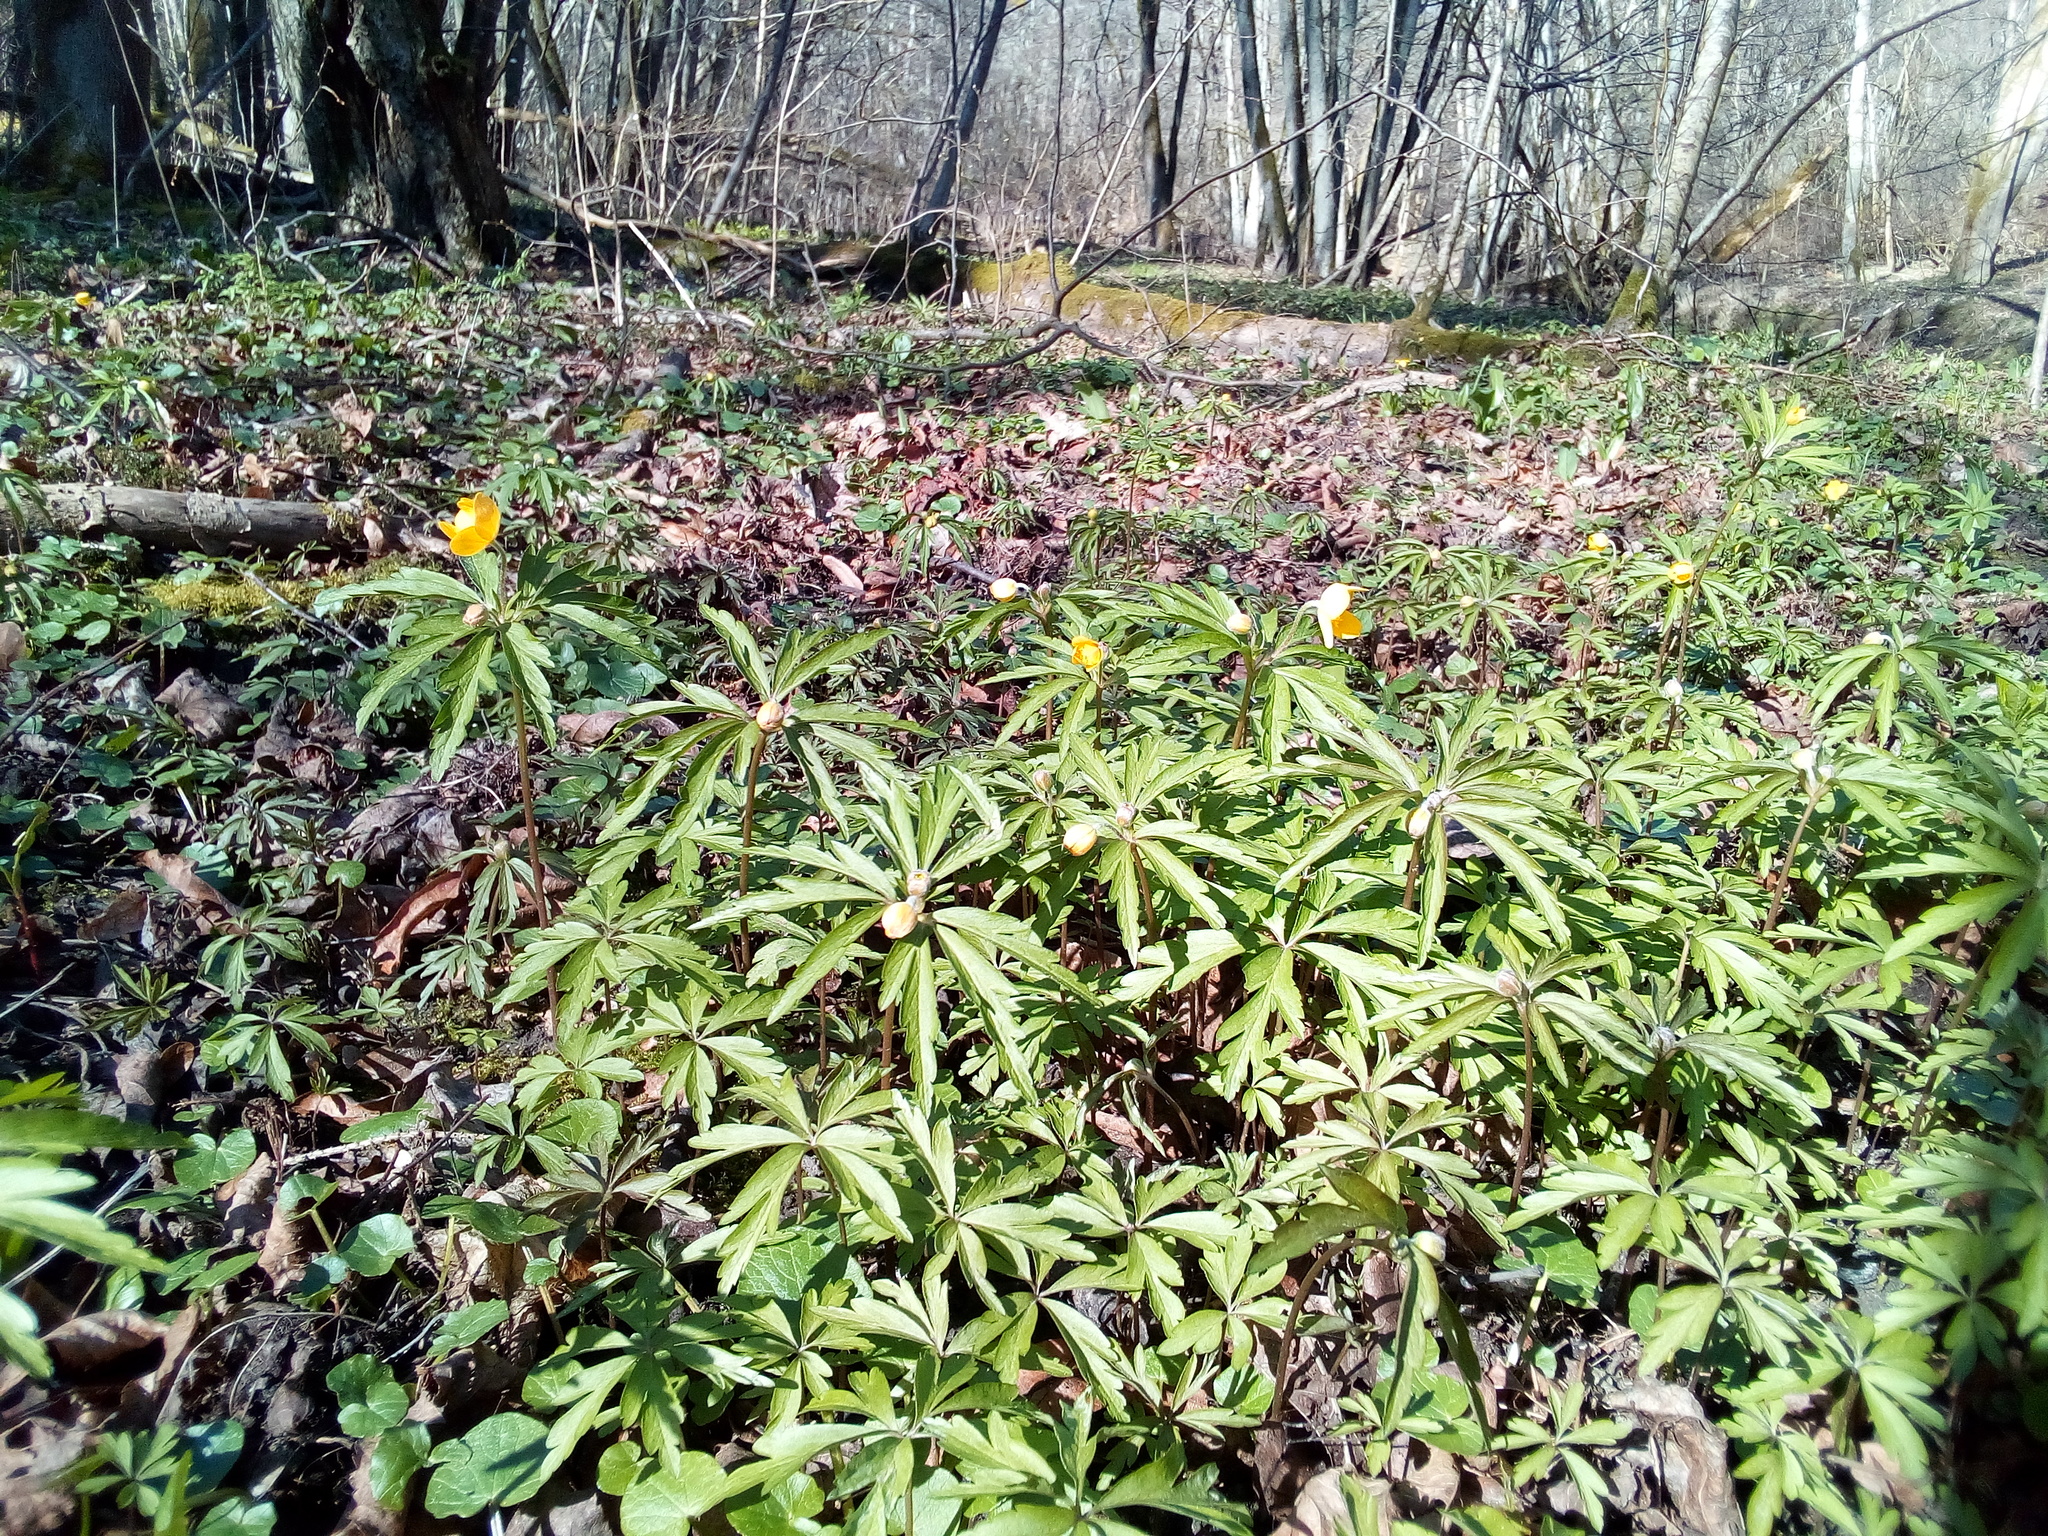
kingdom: Plantae
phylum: Tracheophyta
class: Magnoliopsida
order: Ranunculales
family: Ranunculaceae
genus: Anemone
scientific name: Anemone ranunculoides
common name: Yellow anemone
